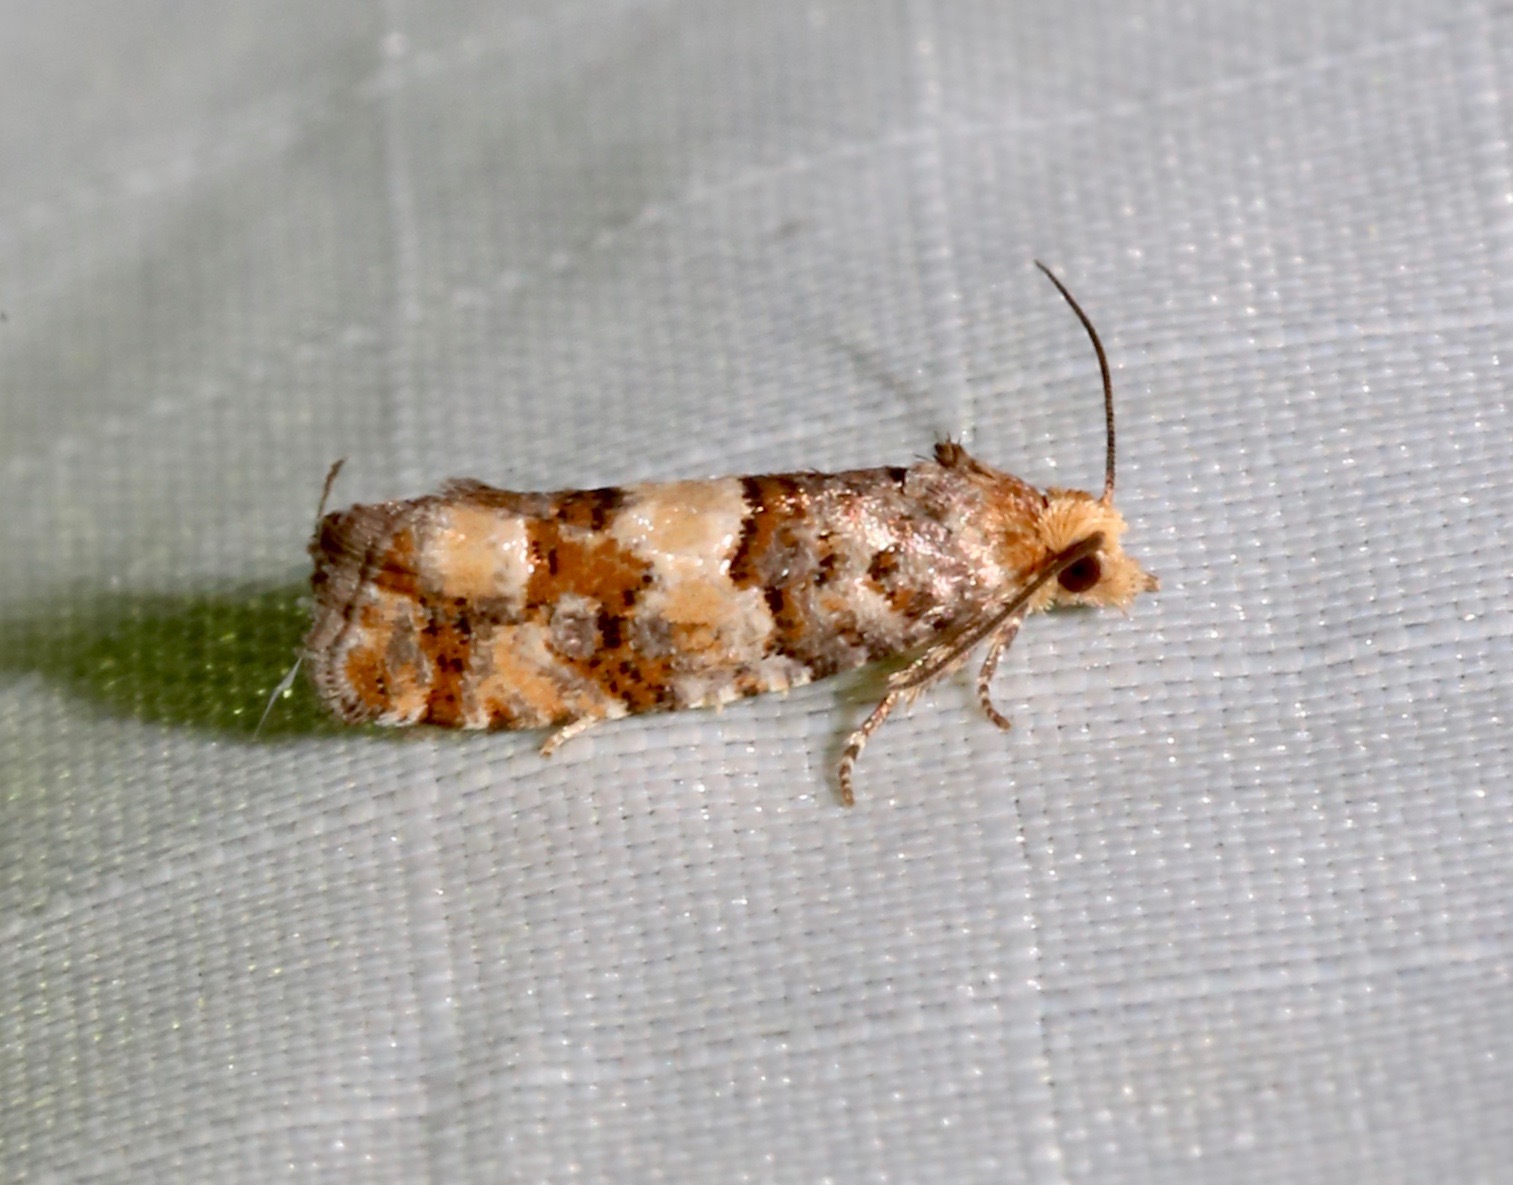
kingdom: Animalia
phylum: Arthropoda
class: Insecta
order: Lepidoptera
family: Tortricidae
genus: Eucopina
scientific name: Eucopina tocullionana
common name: White pinecone borer moth
